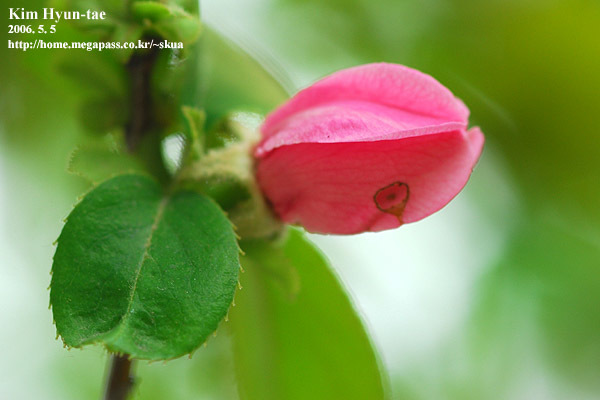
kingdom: Plantae
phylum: Tracheophyta
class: Magnoliopsida
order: Rosales
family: Rosaceae
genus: Pseudocydonia
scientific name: Pseudocydonia sinensis
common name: Chinese-quince
